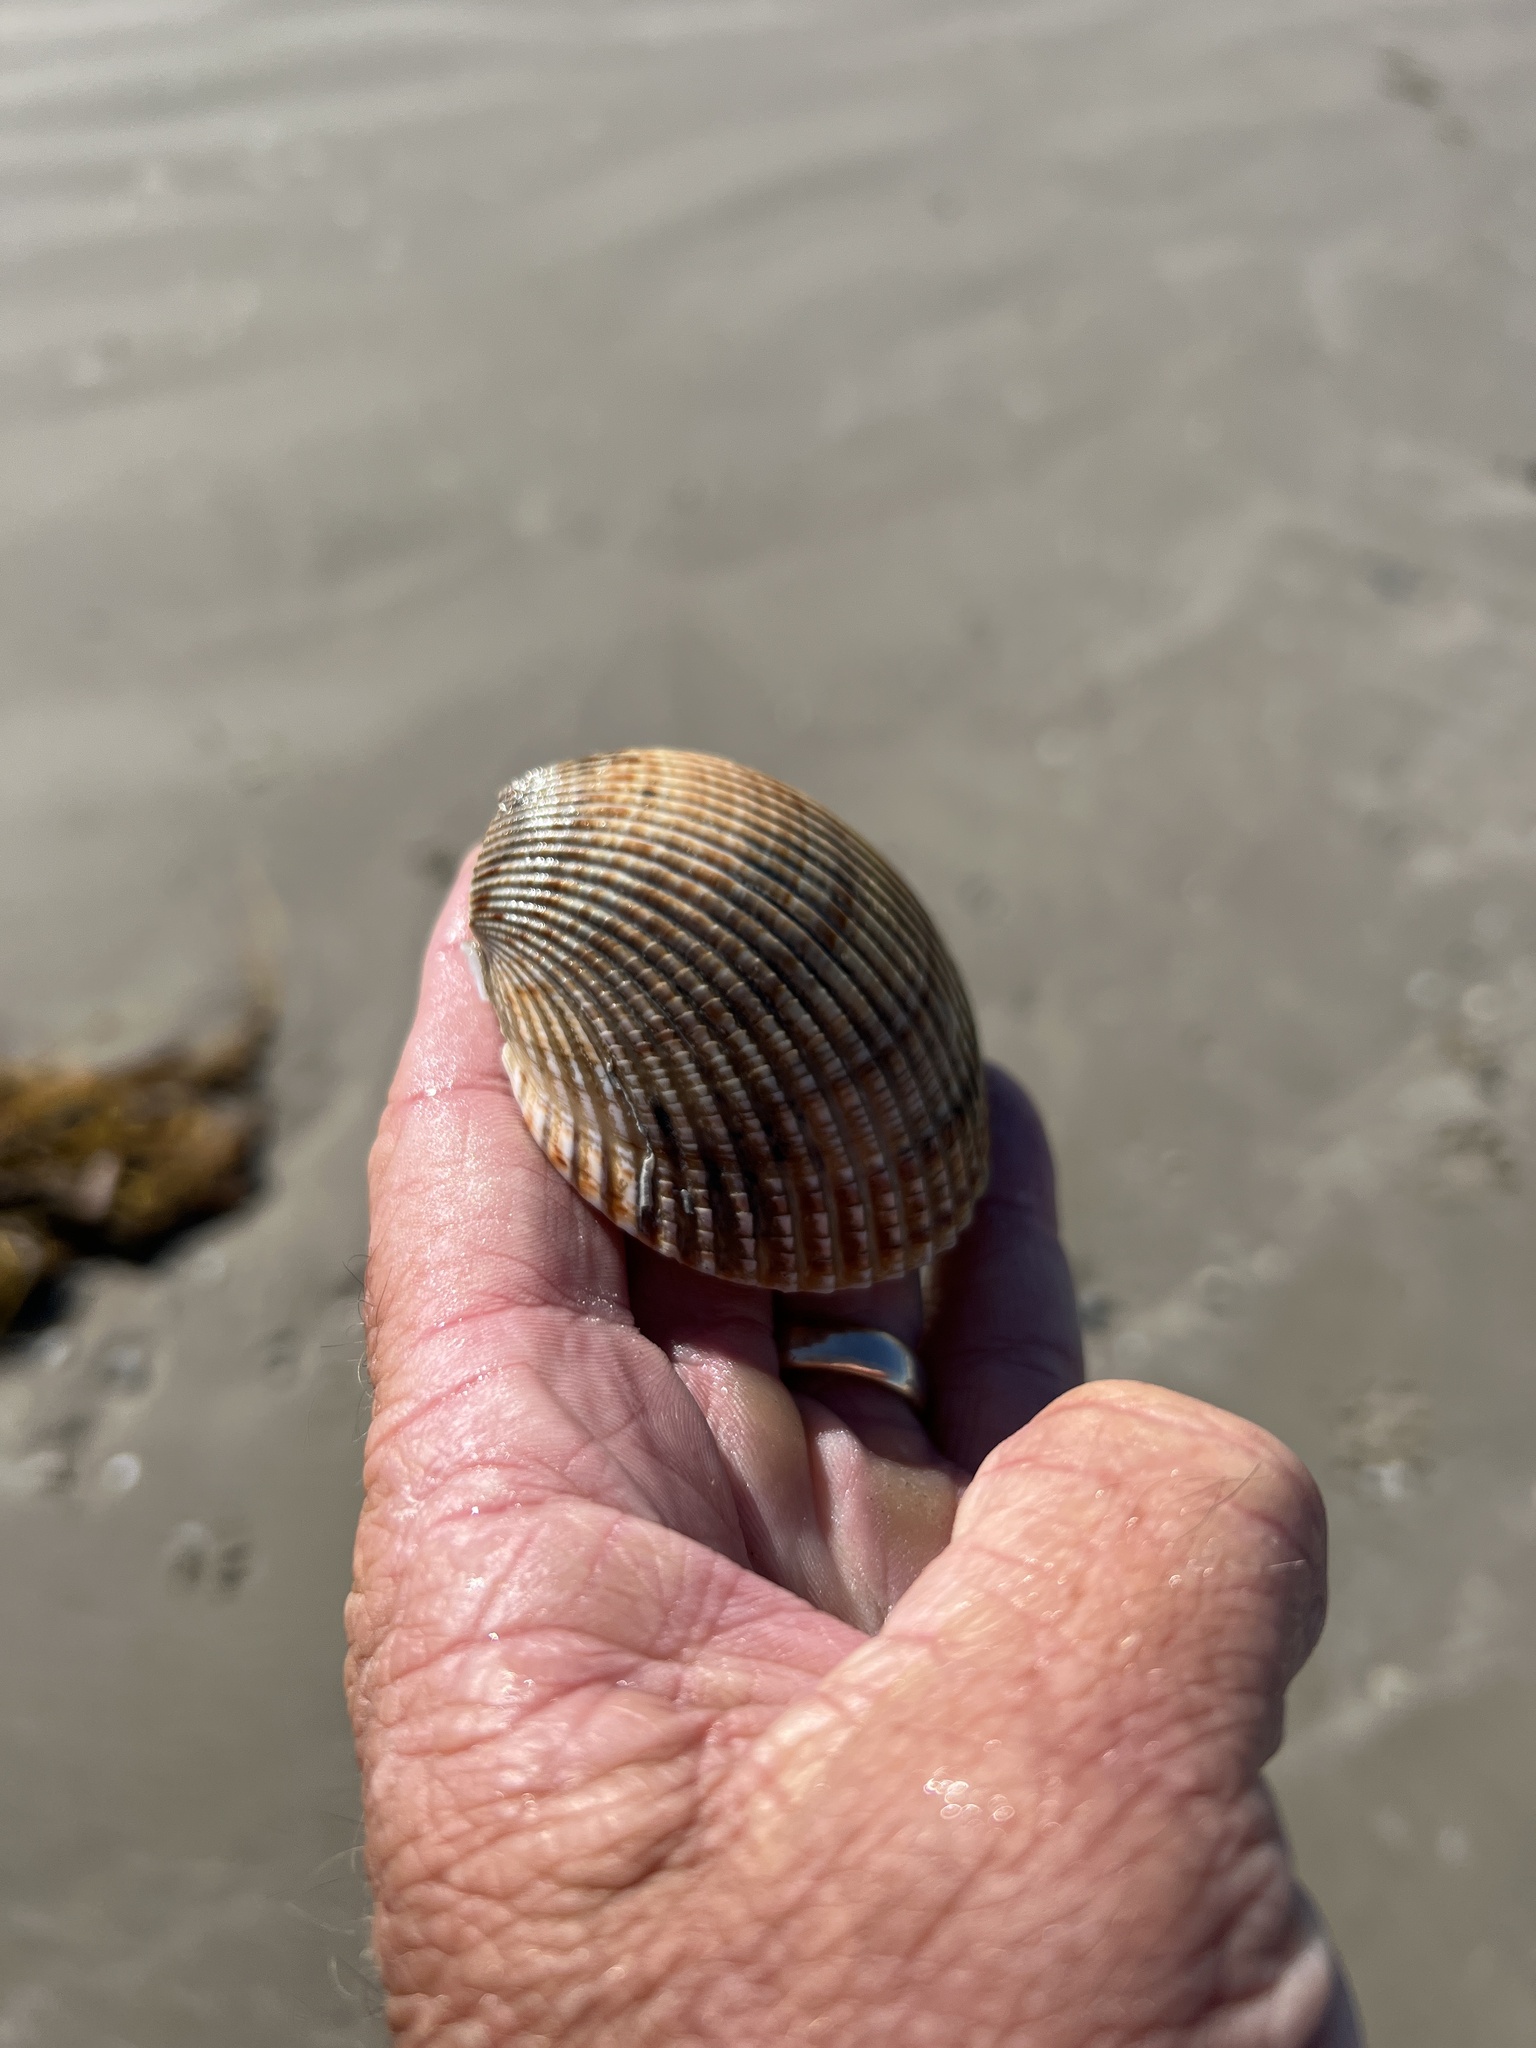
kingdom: Animalia
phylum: Mollusca
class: Bivalvia
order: Cardiida
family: Cardiidae
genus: Dinocardium
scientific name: Dinocardium robustum
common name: Atlantic giant cockle
